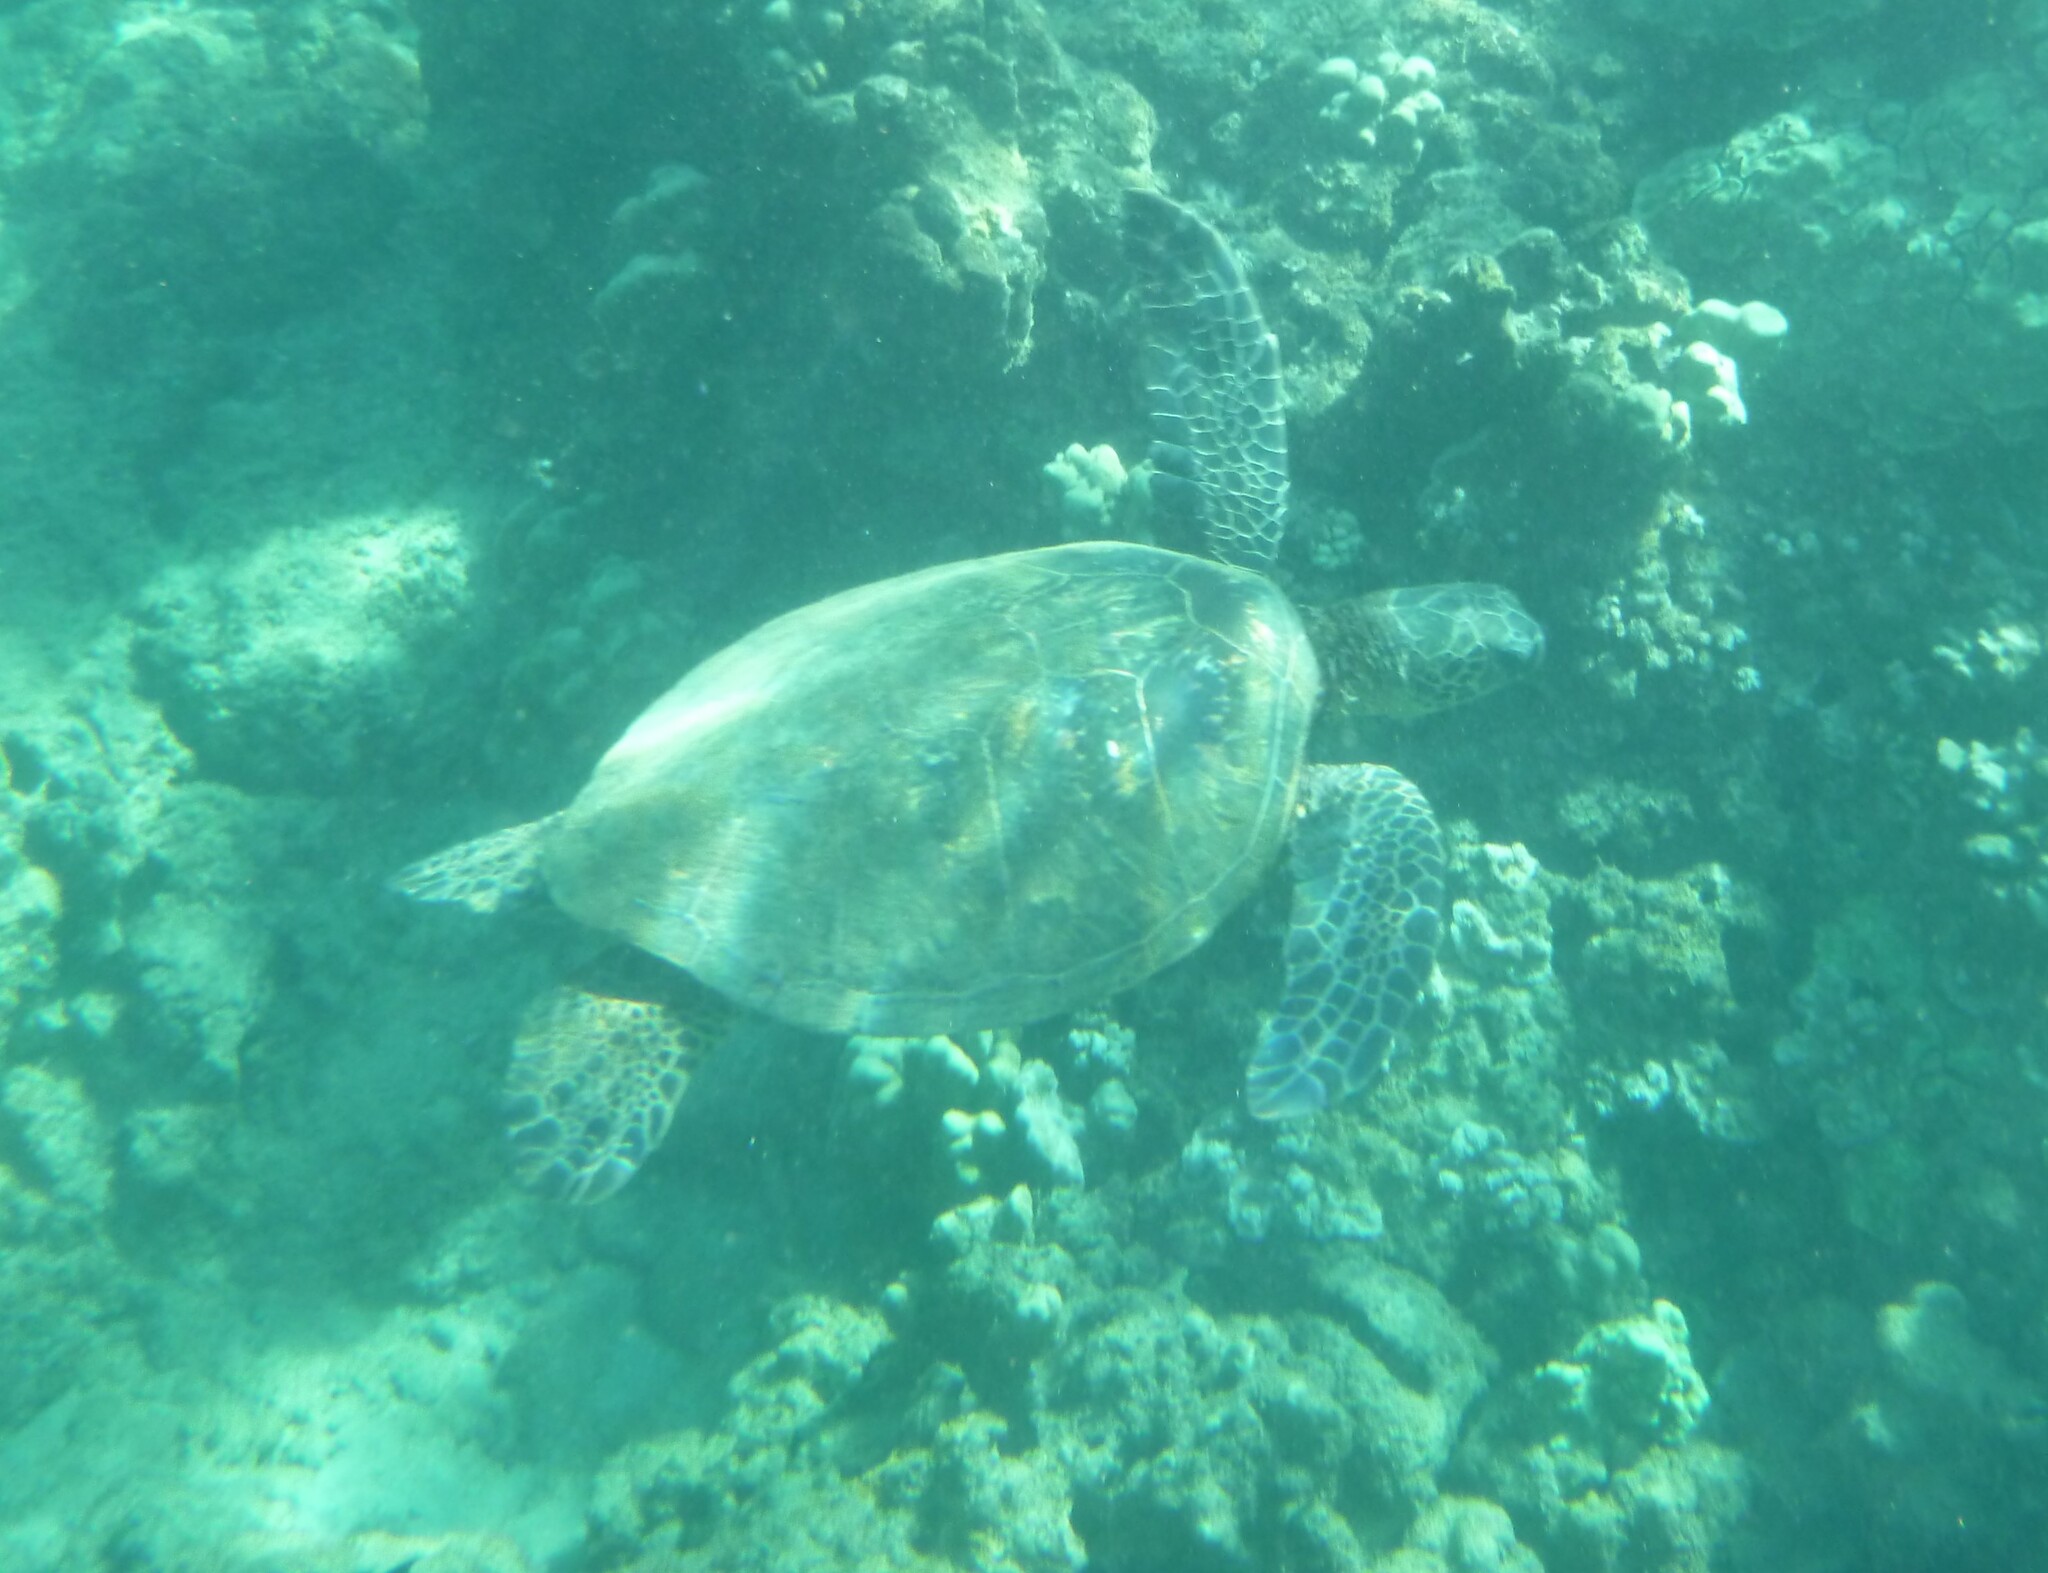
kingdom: Animalia
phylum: Chordata
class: Testudines
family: Cheloniidae
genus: Chelonia
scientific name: Chelonia mydas
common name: Green turtle
